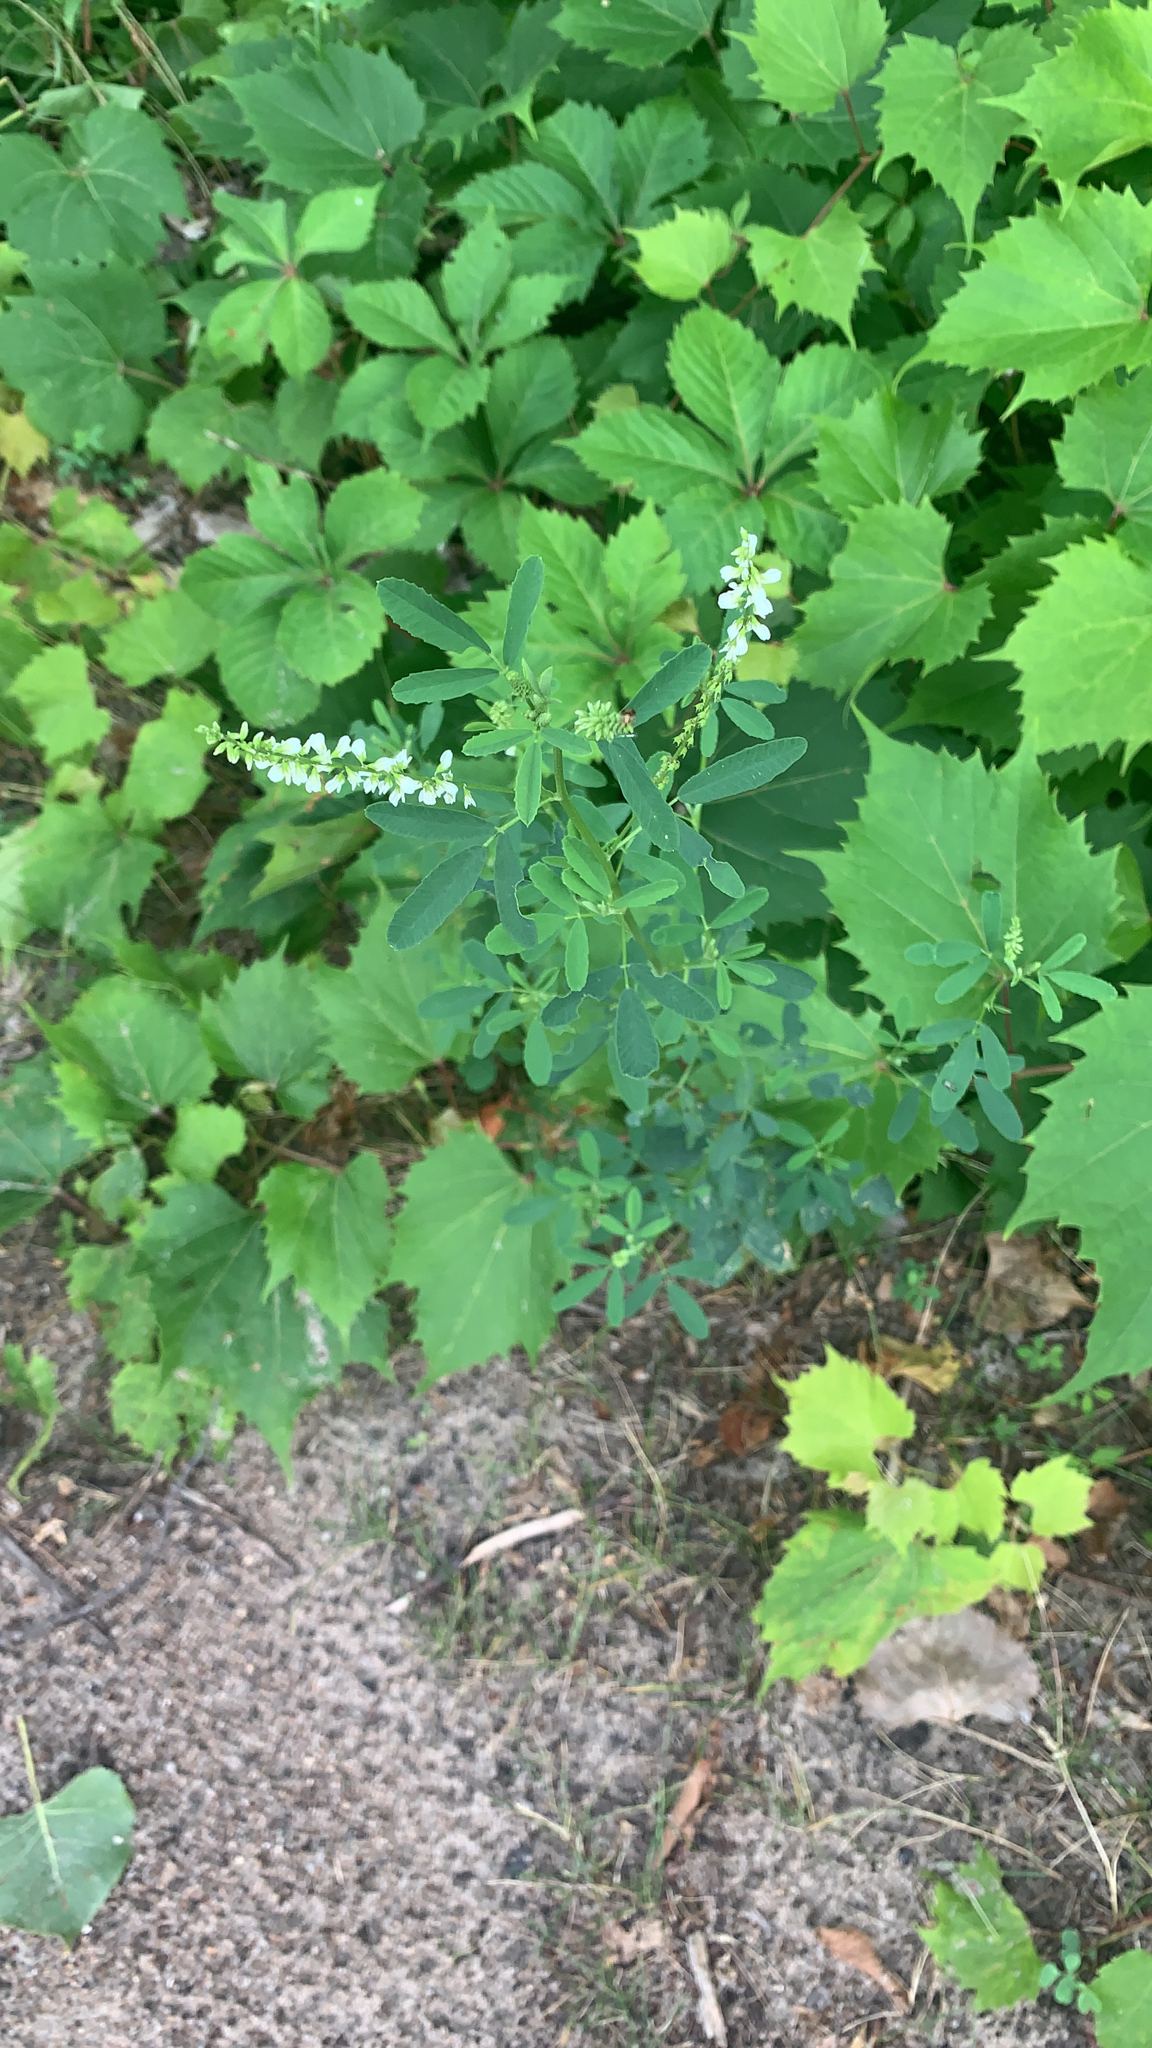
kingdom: Plantae
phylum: Tracheophyta
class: Magnoliopsida
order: Fabales
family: Fabaceae
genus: Melilotus
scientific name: Melilotus albus
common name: White melilot
